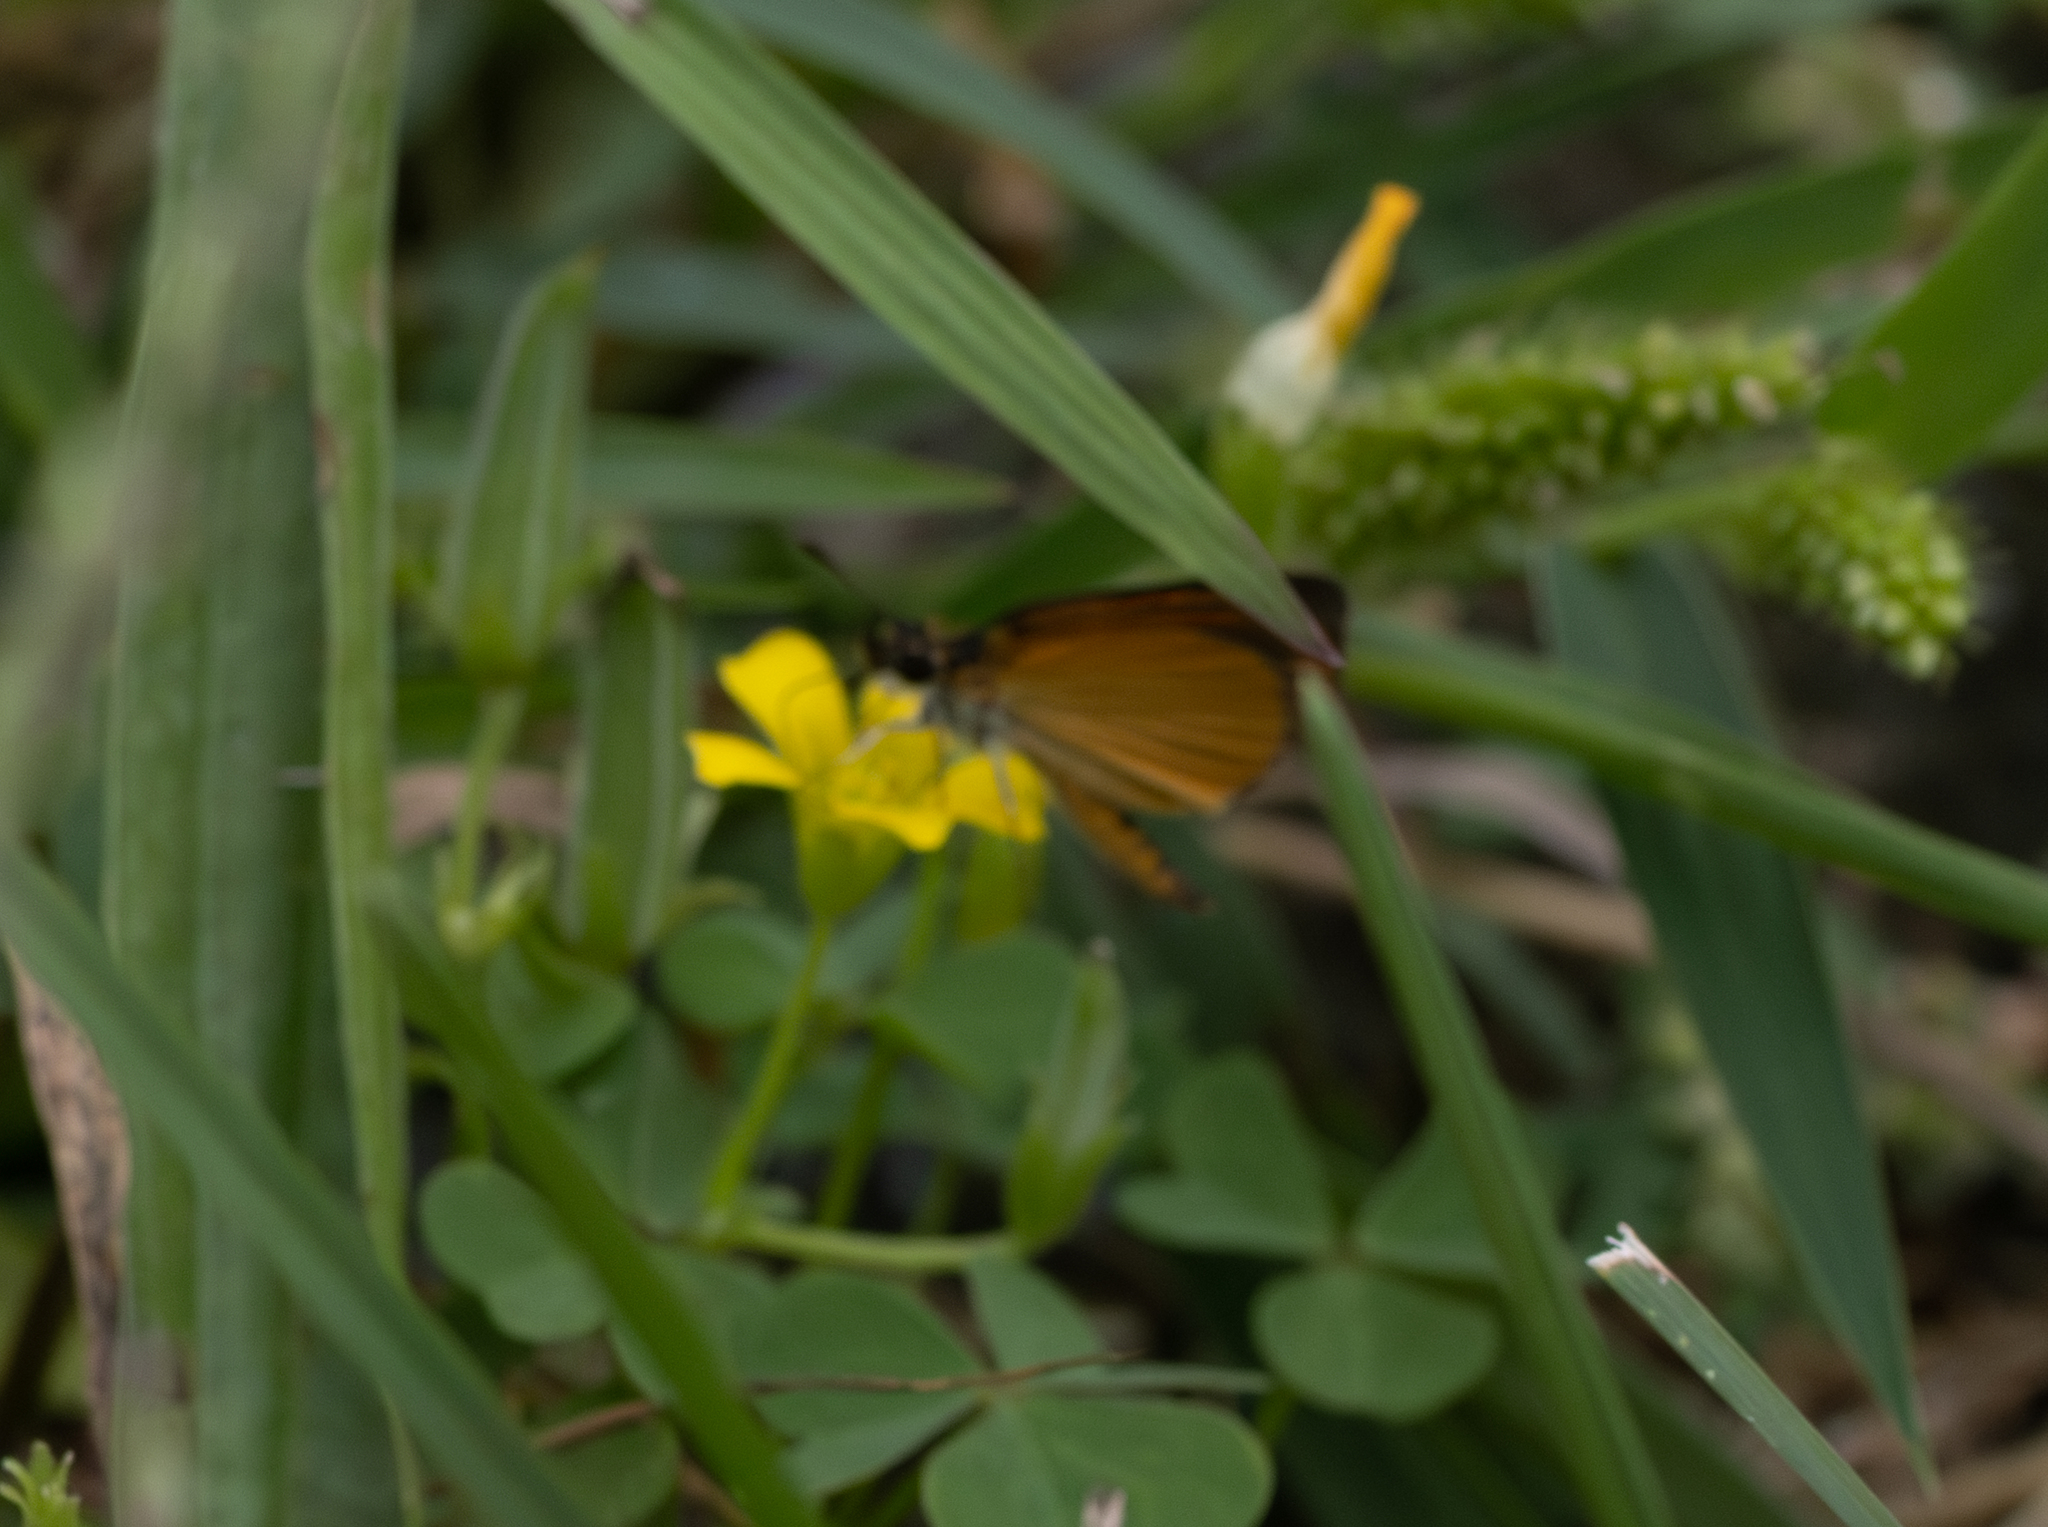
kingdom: Animalia
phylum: Arthropoda
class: Insecta
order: Lepidoptera
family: Hesperiidae
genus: Ancyloxypha
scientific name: Ancyloxypha numitor
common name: Least skipper
